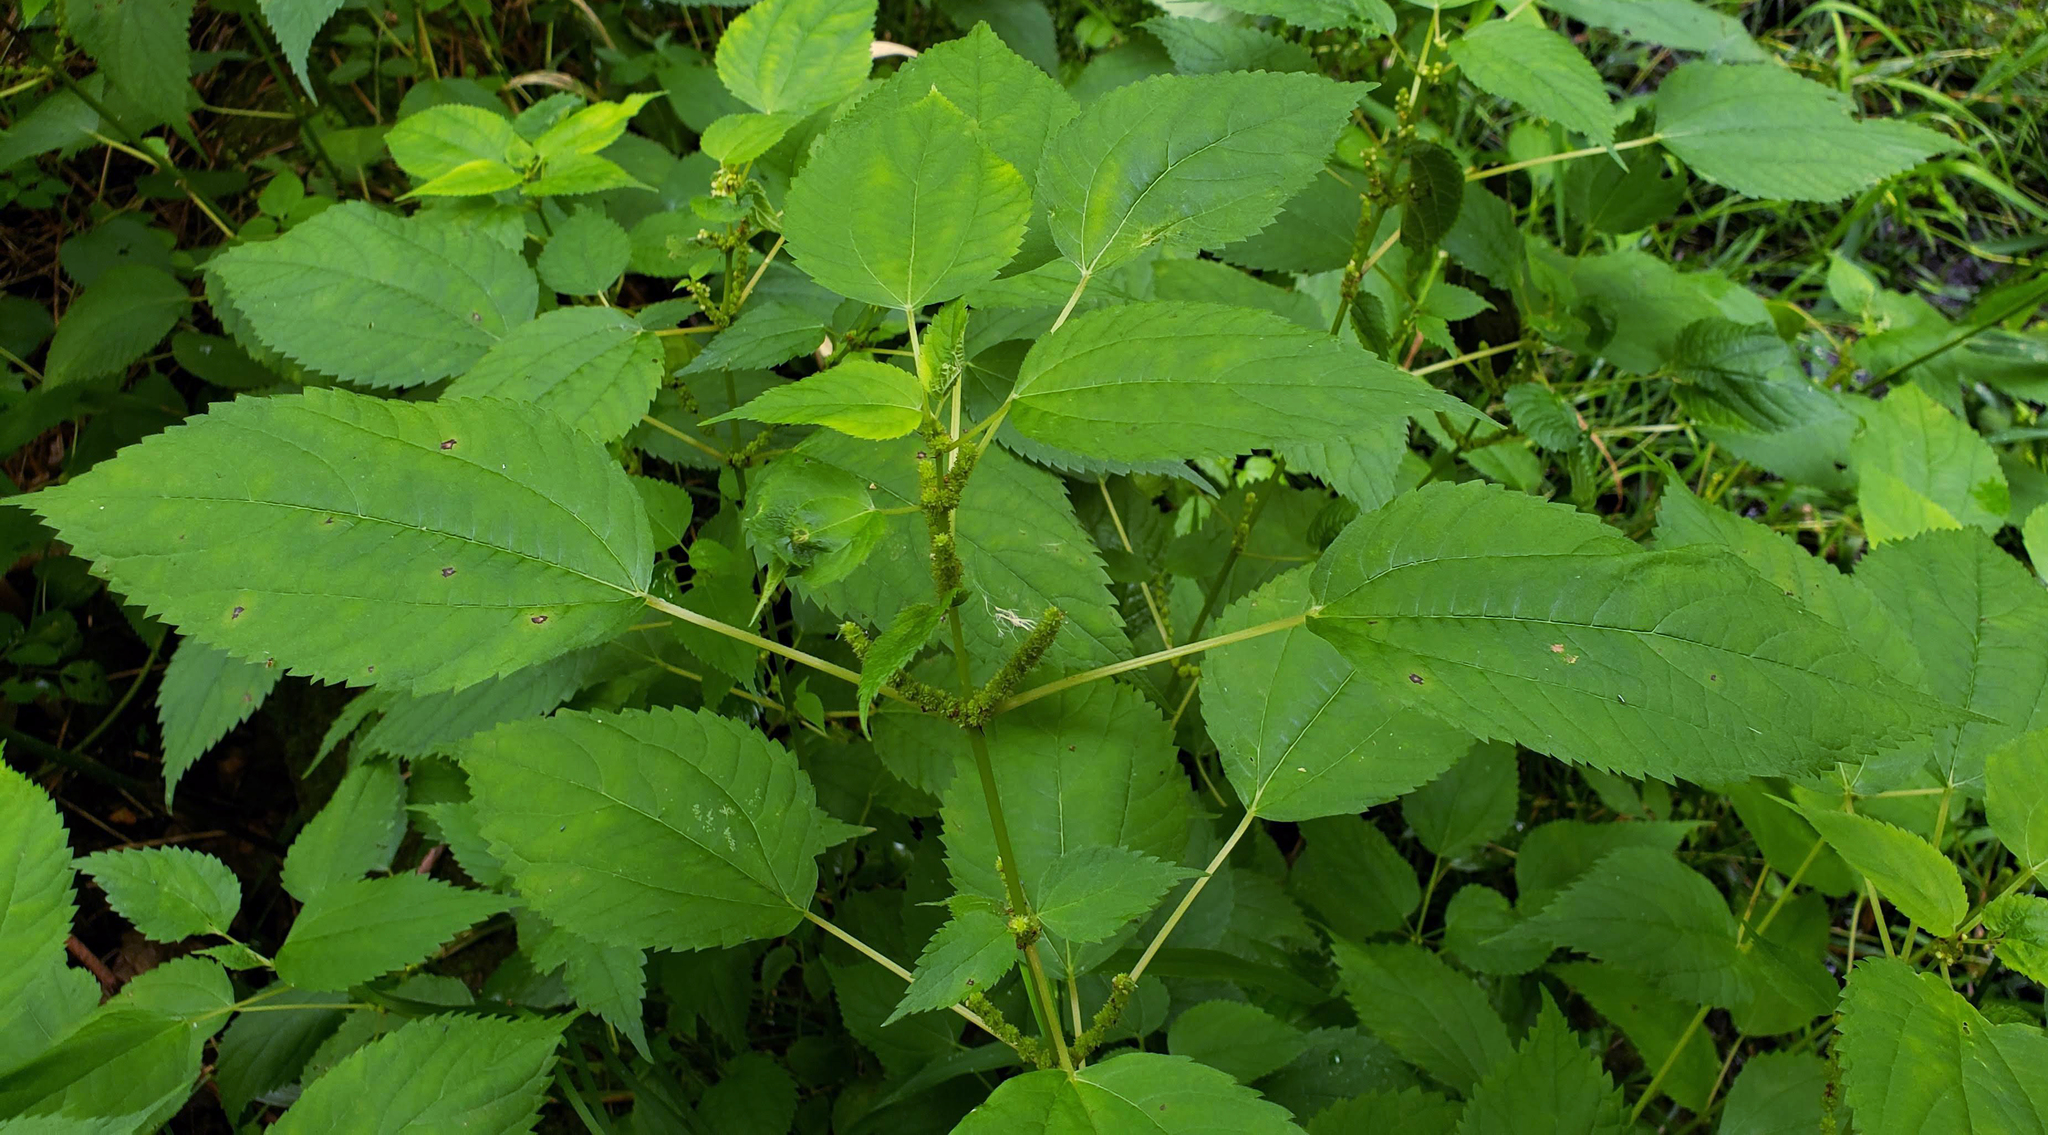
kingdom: Plantae
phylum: Tracheophyta
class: Magnoliopsida
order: Rosales
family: Urticaceae
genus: Boehmeria
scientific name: Boehmeria cylindrica
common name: Bog-hemp
